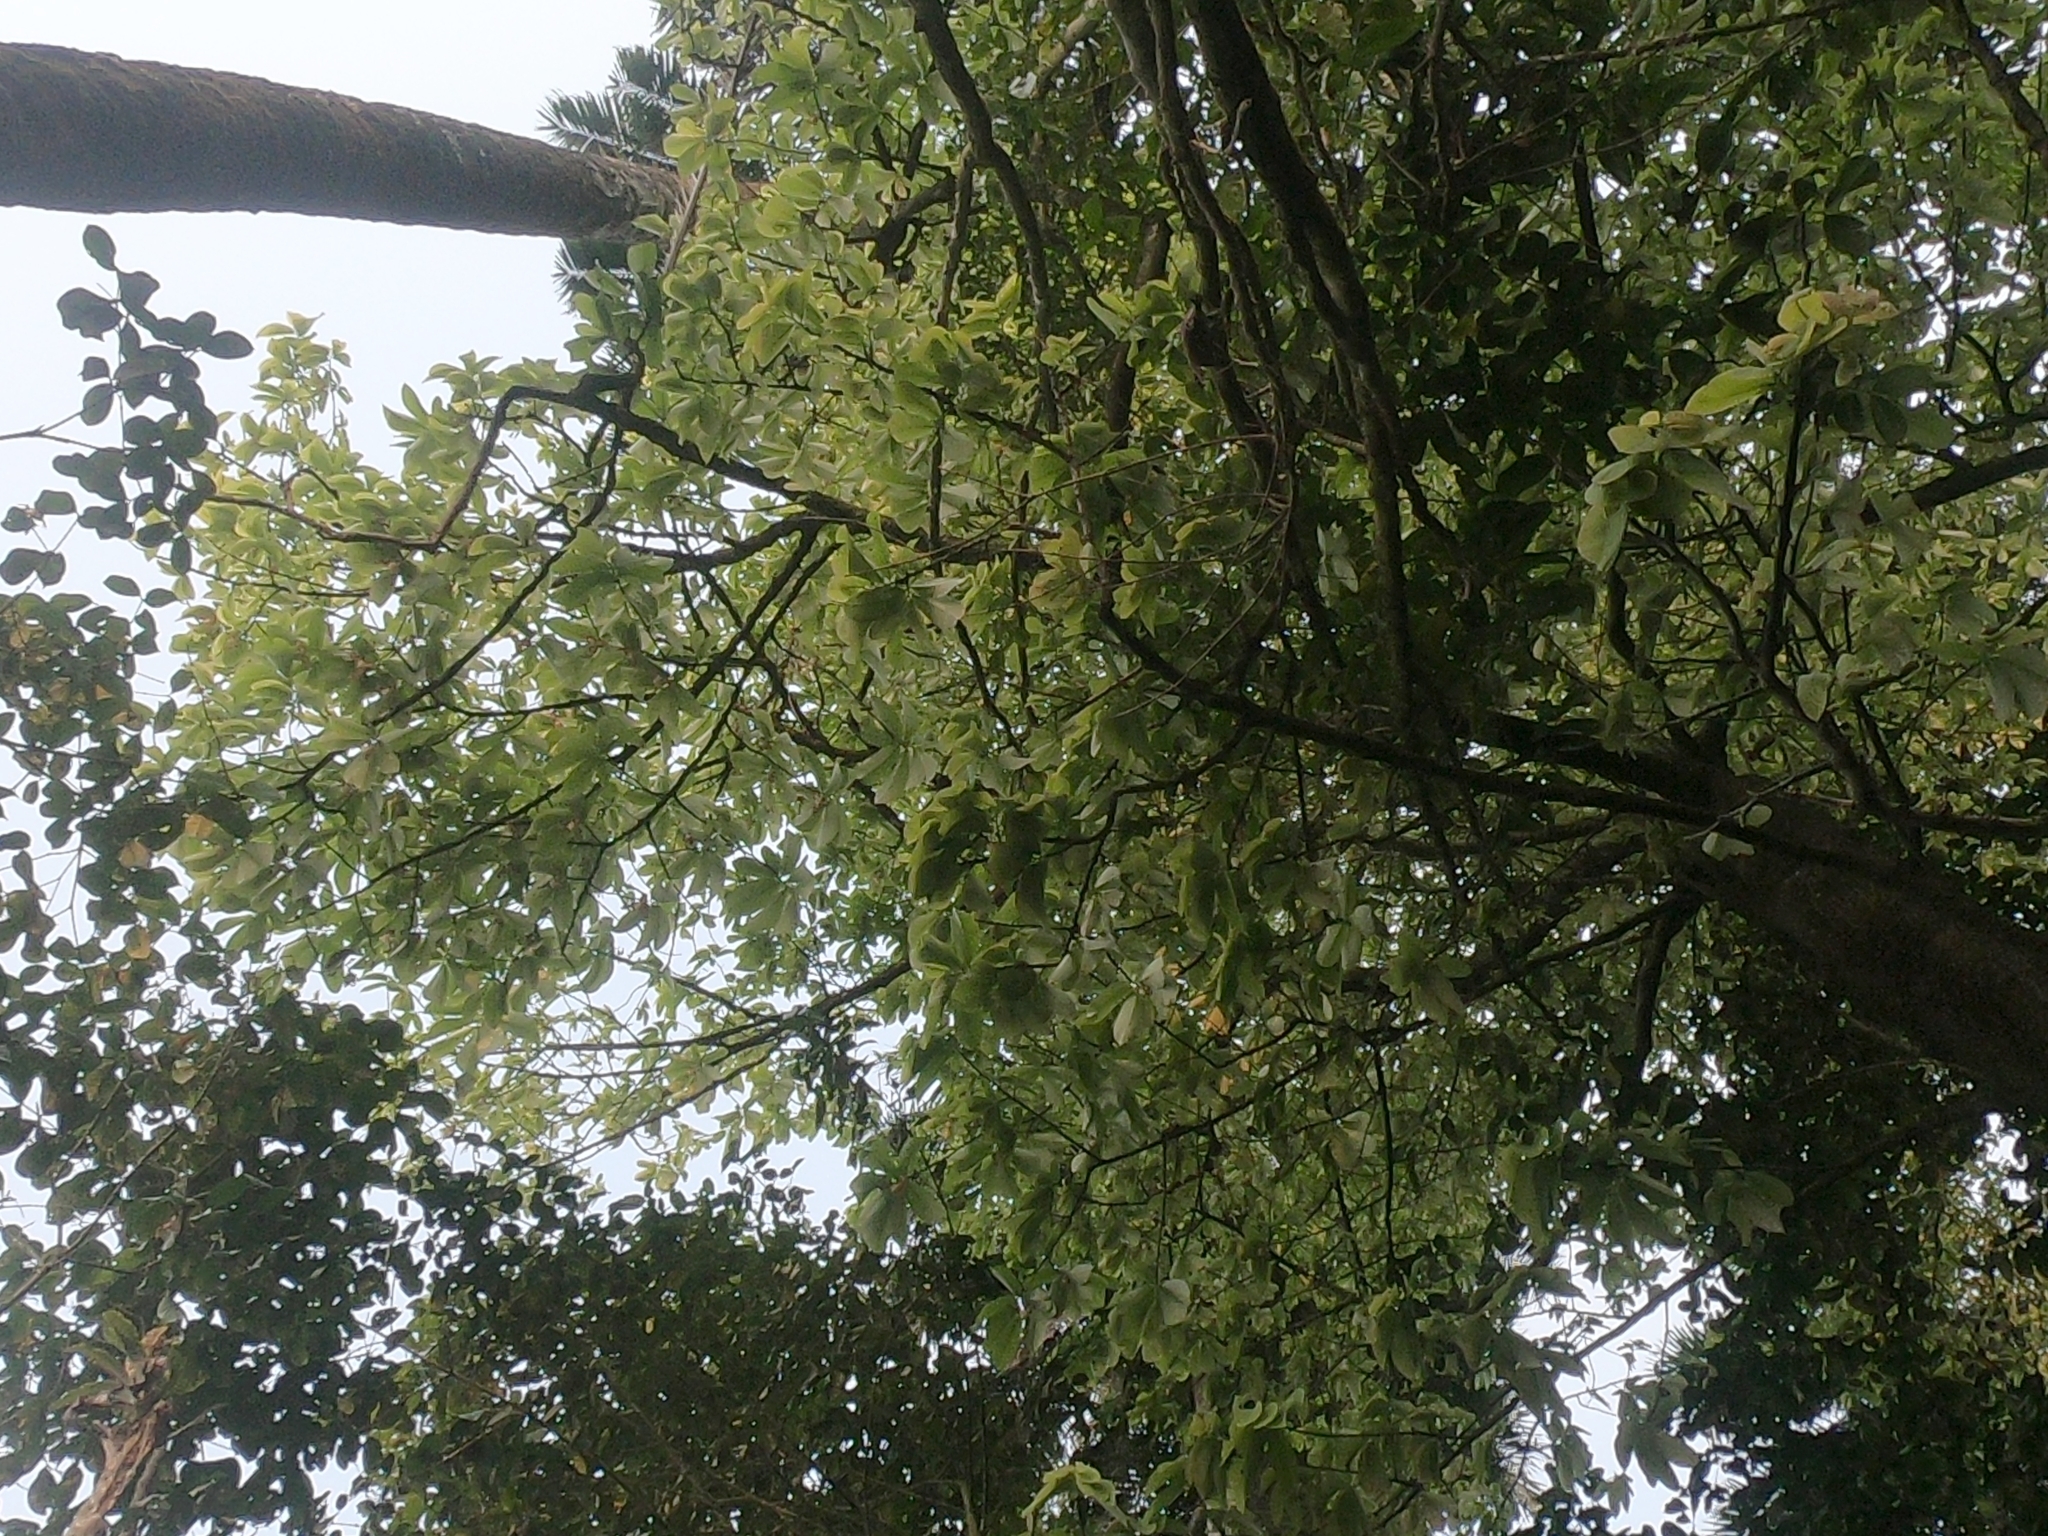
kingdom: Plantae
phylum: Tracheophyta
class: Magnoliopsida
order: Magnoliales
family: Annonaceae
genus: Monodora
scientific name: Monodora myristica
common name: African nutmeg
